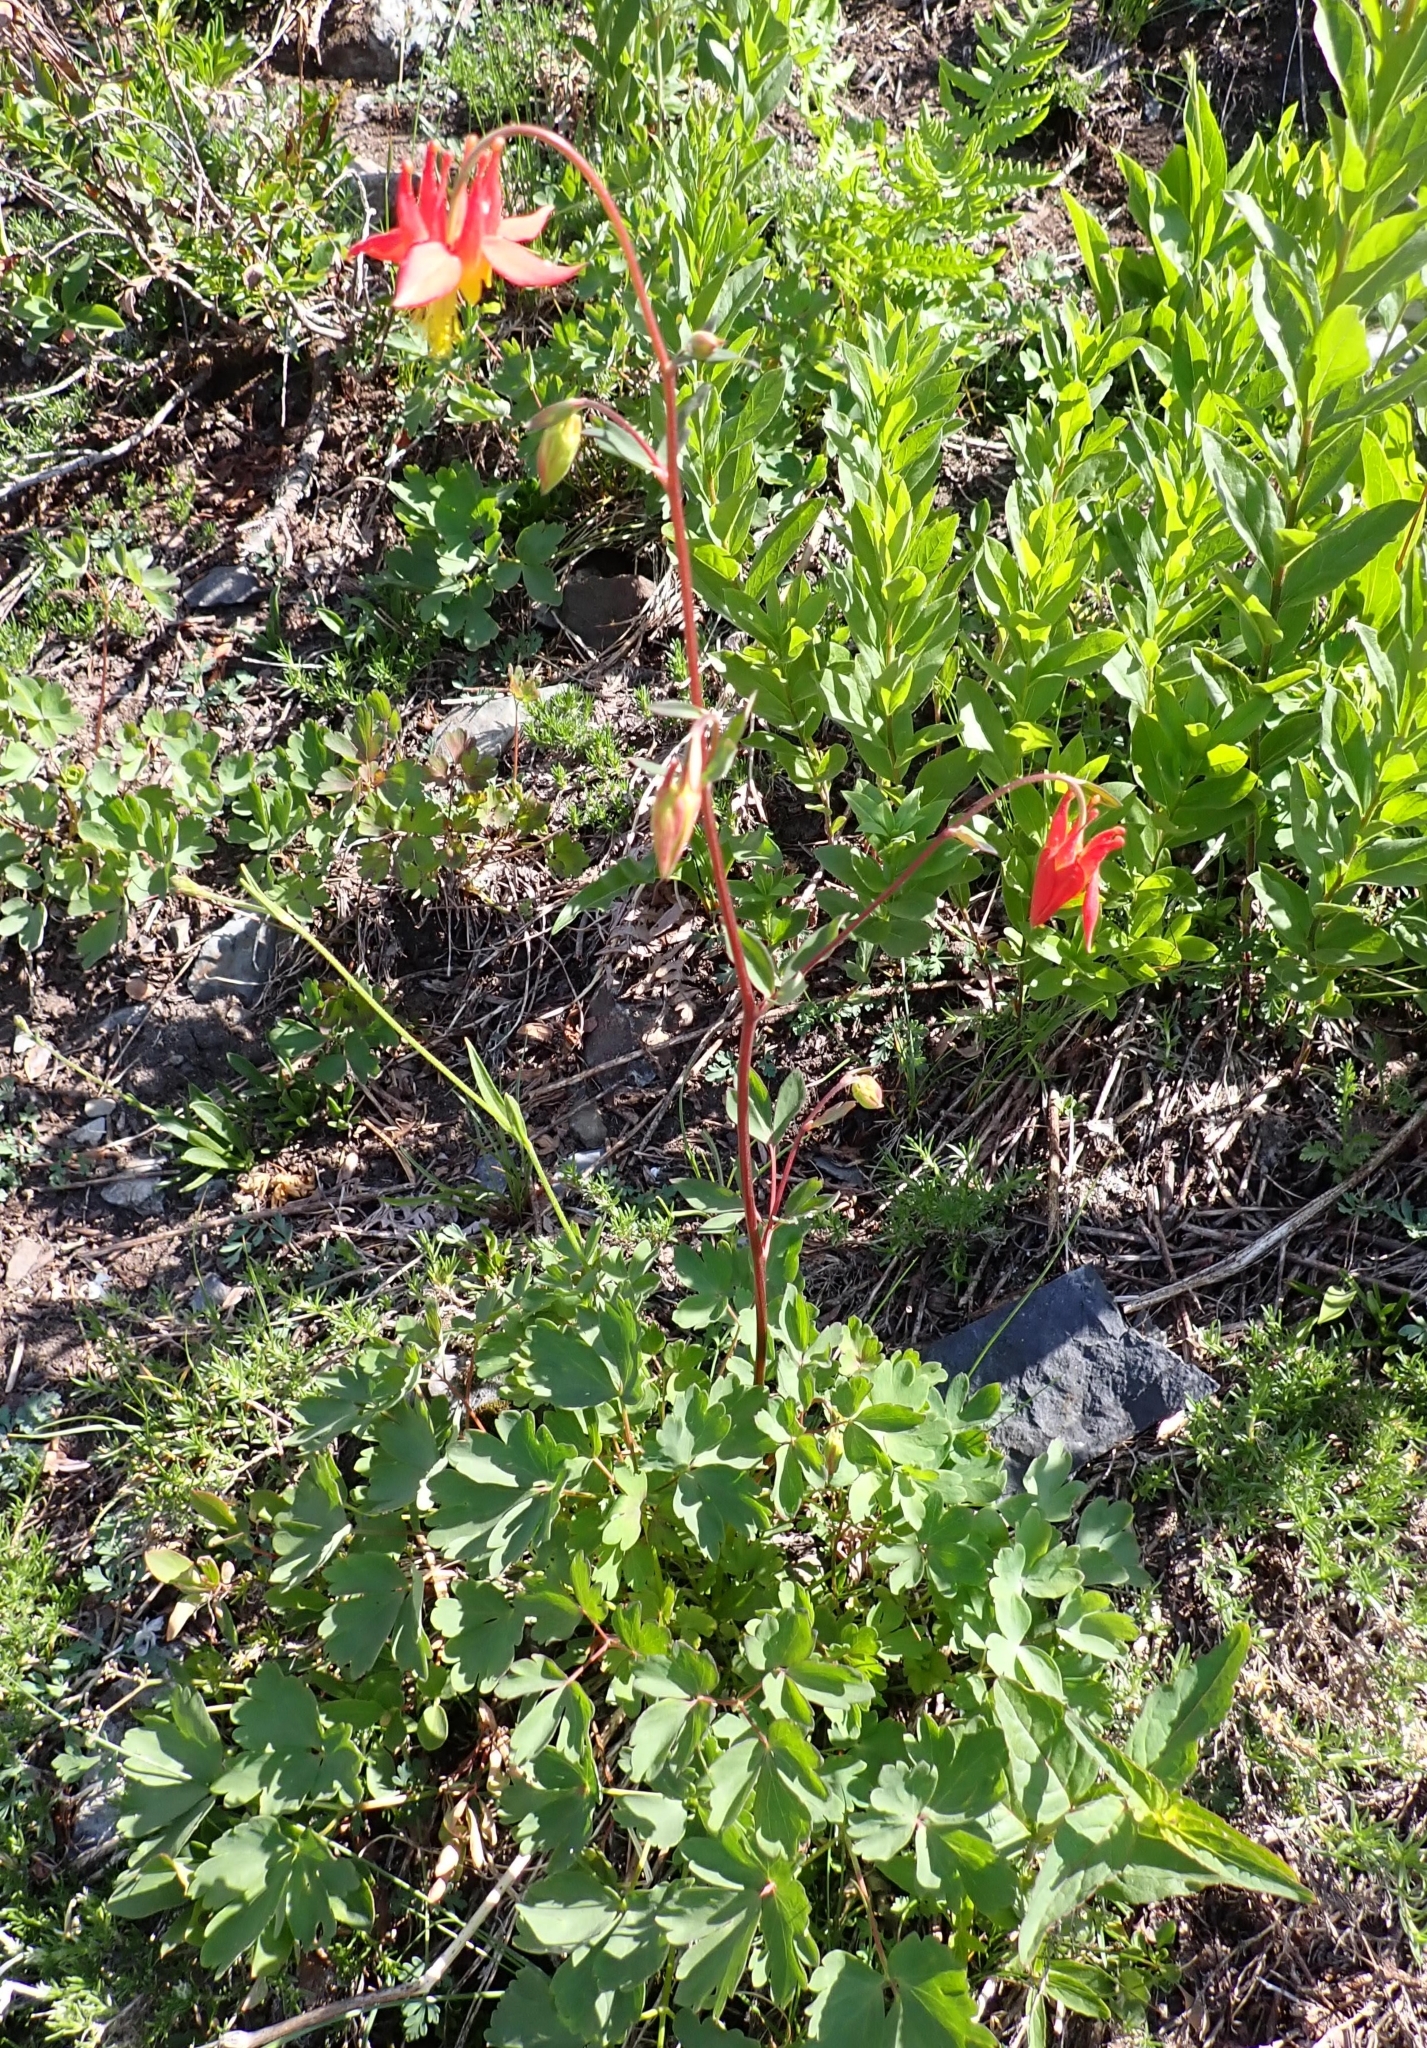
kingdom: Plantae
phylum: Tracheophyta
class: Magnoliopsida
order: Ranunculales
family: Ranunculaceae
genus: Aquilegia
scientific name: Aquilegia formosa
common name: Sitka columbine
